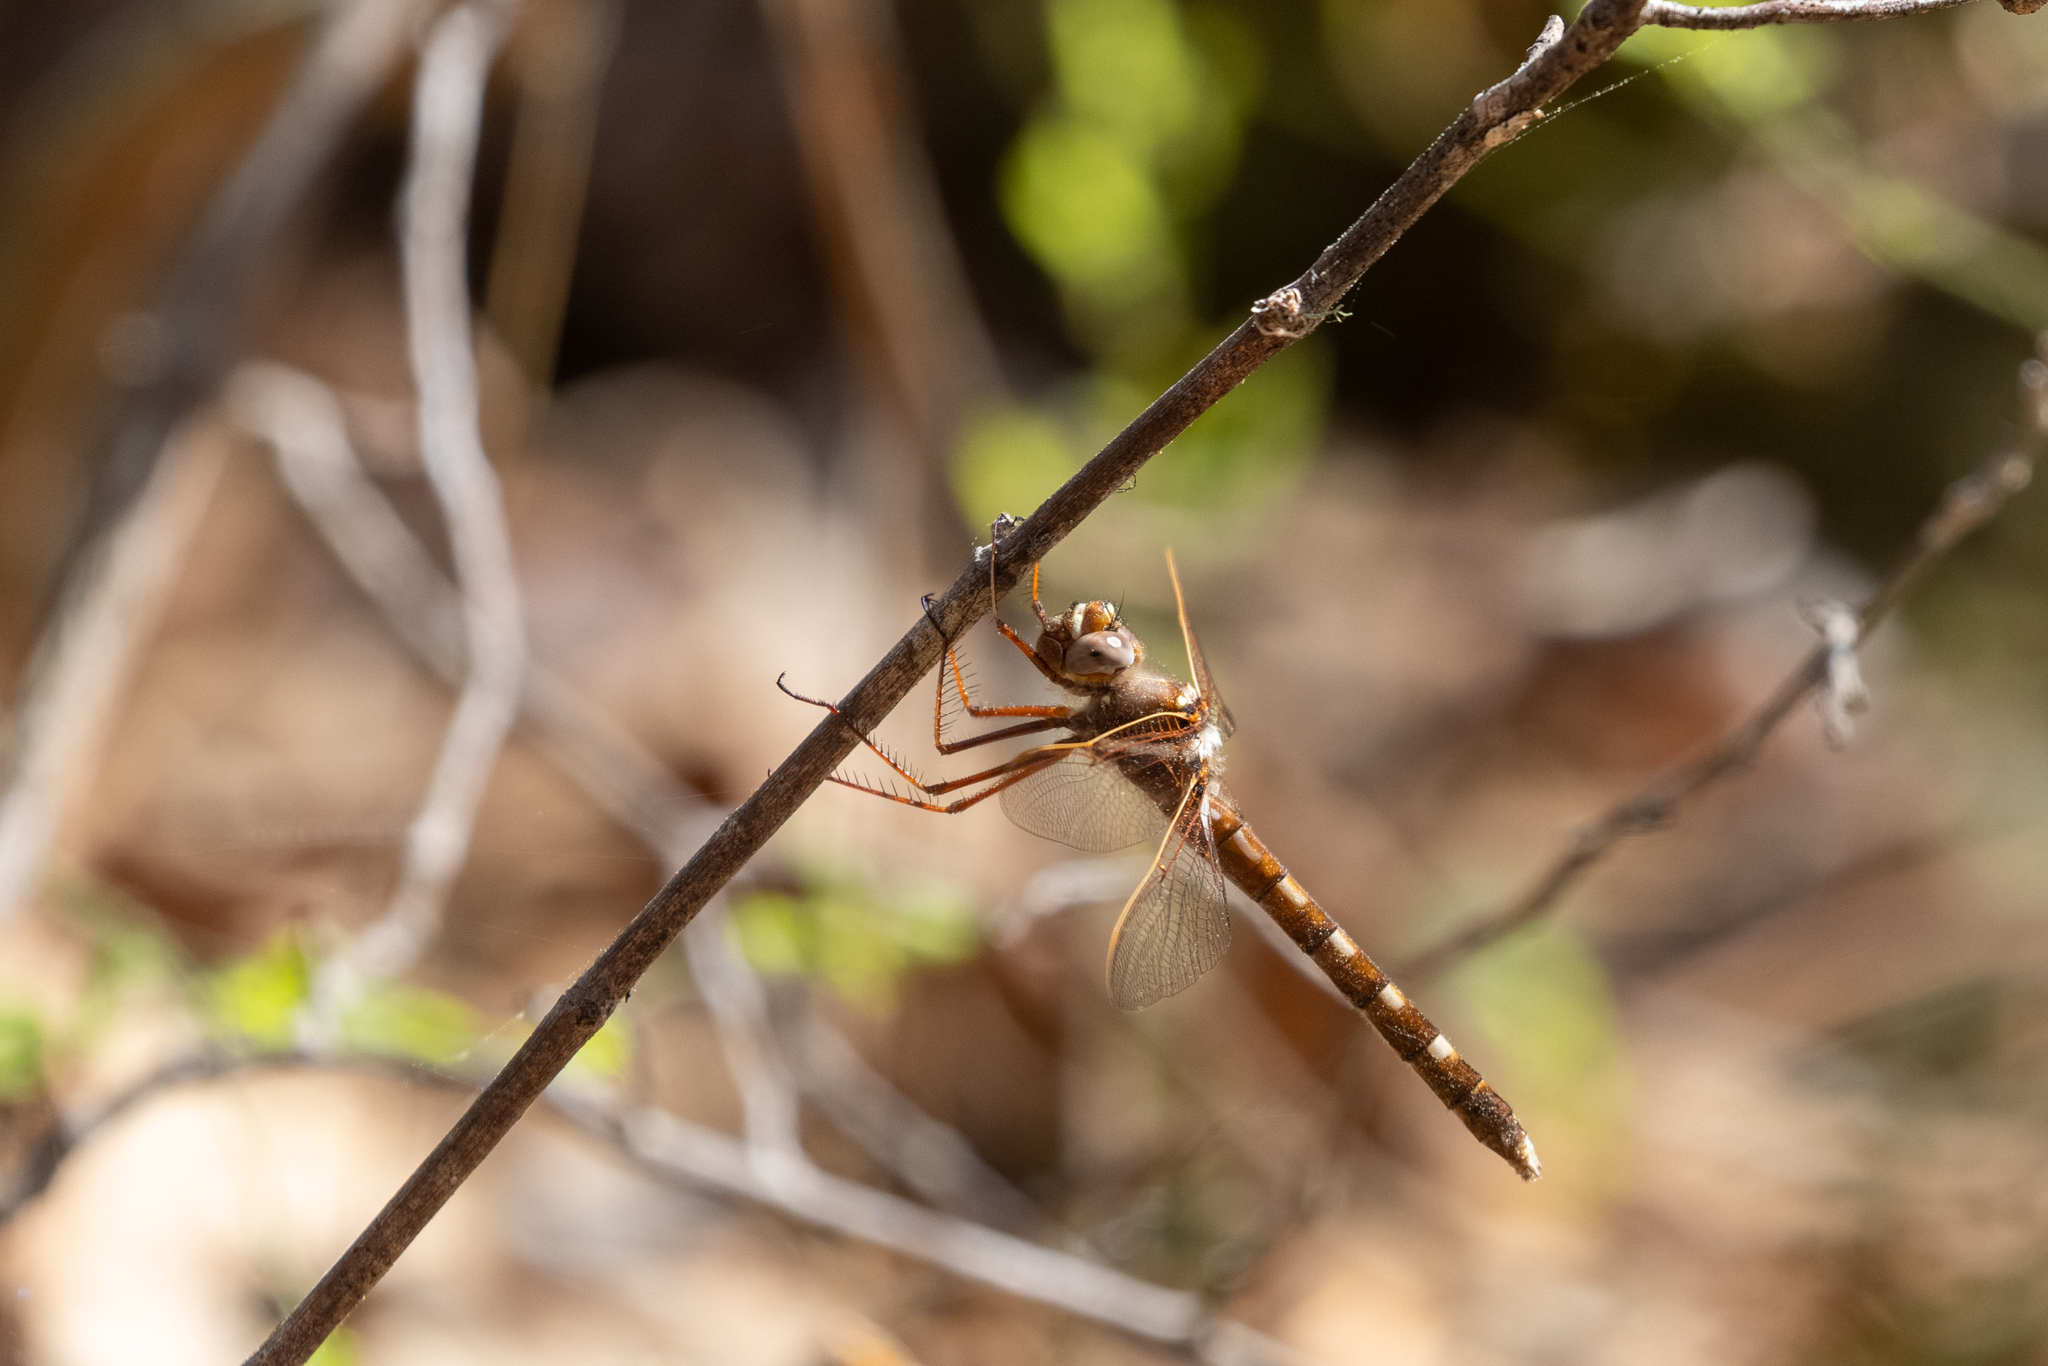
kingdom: Animalia
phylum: Arthropoda
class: Insecta
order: Odonata
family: Macromiidae
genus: Didymops
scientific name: Didymops transversa
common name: Stream cruiser
